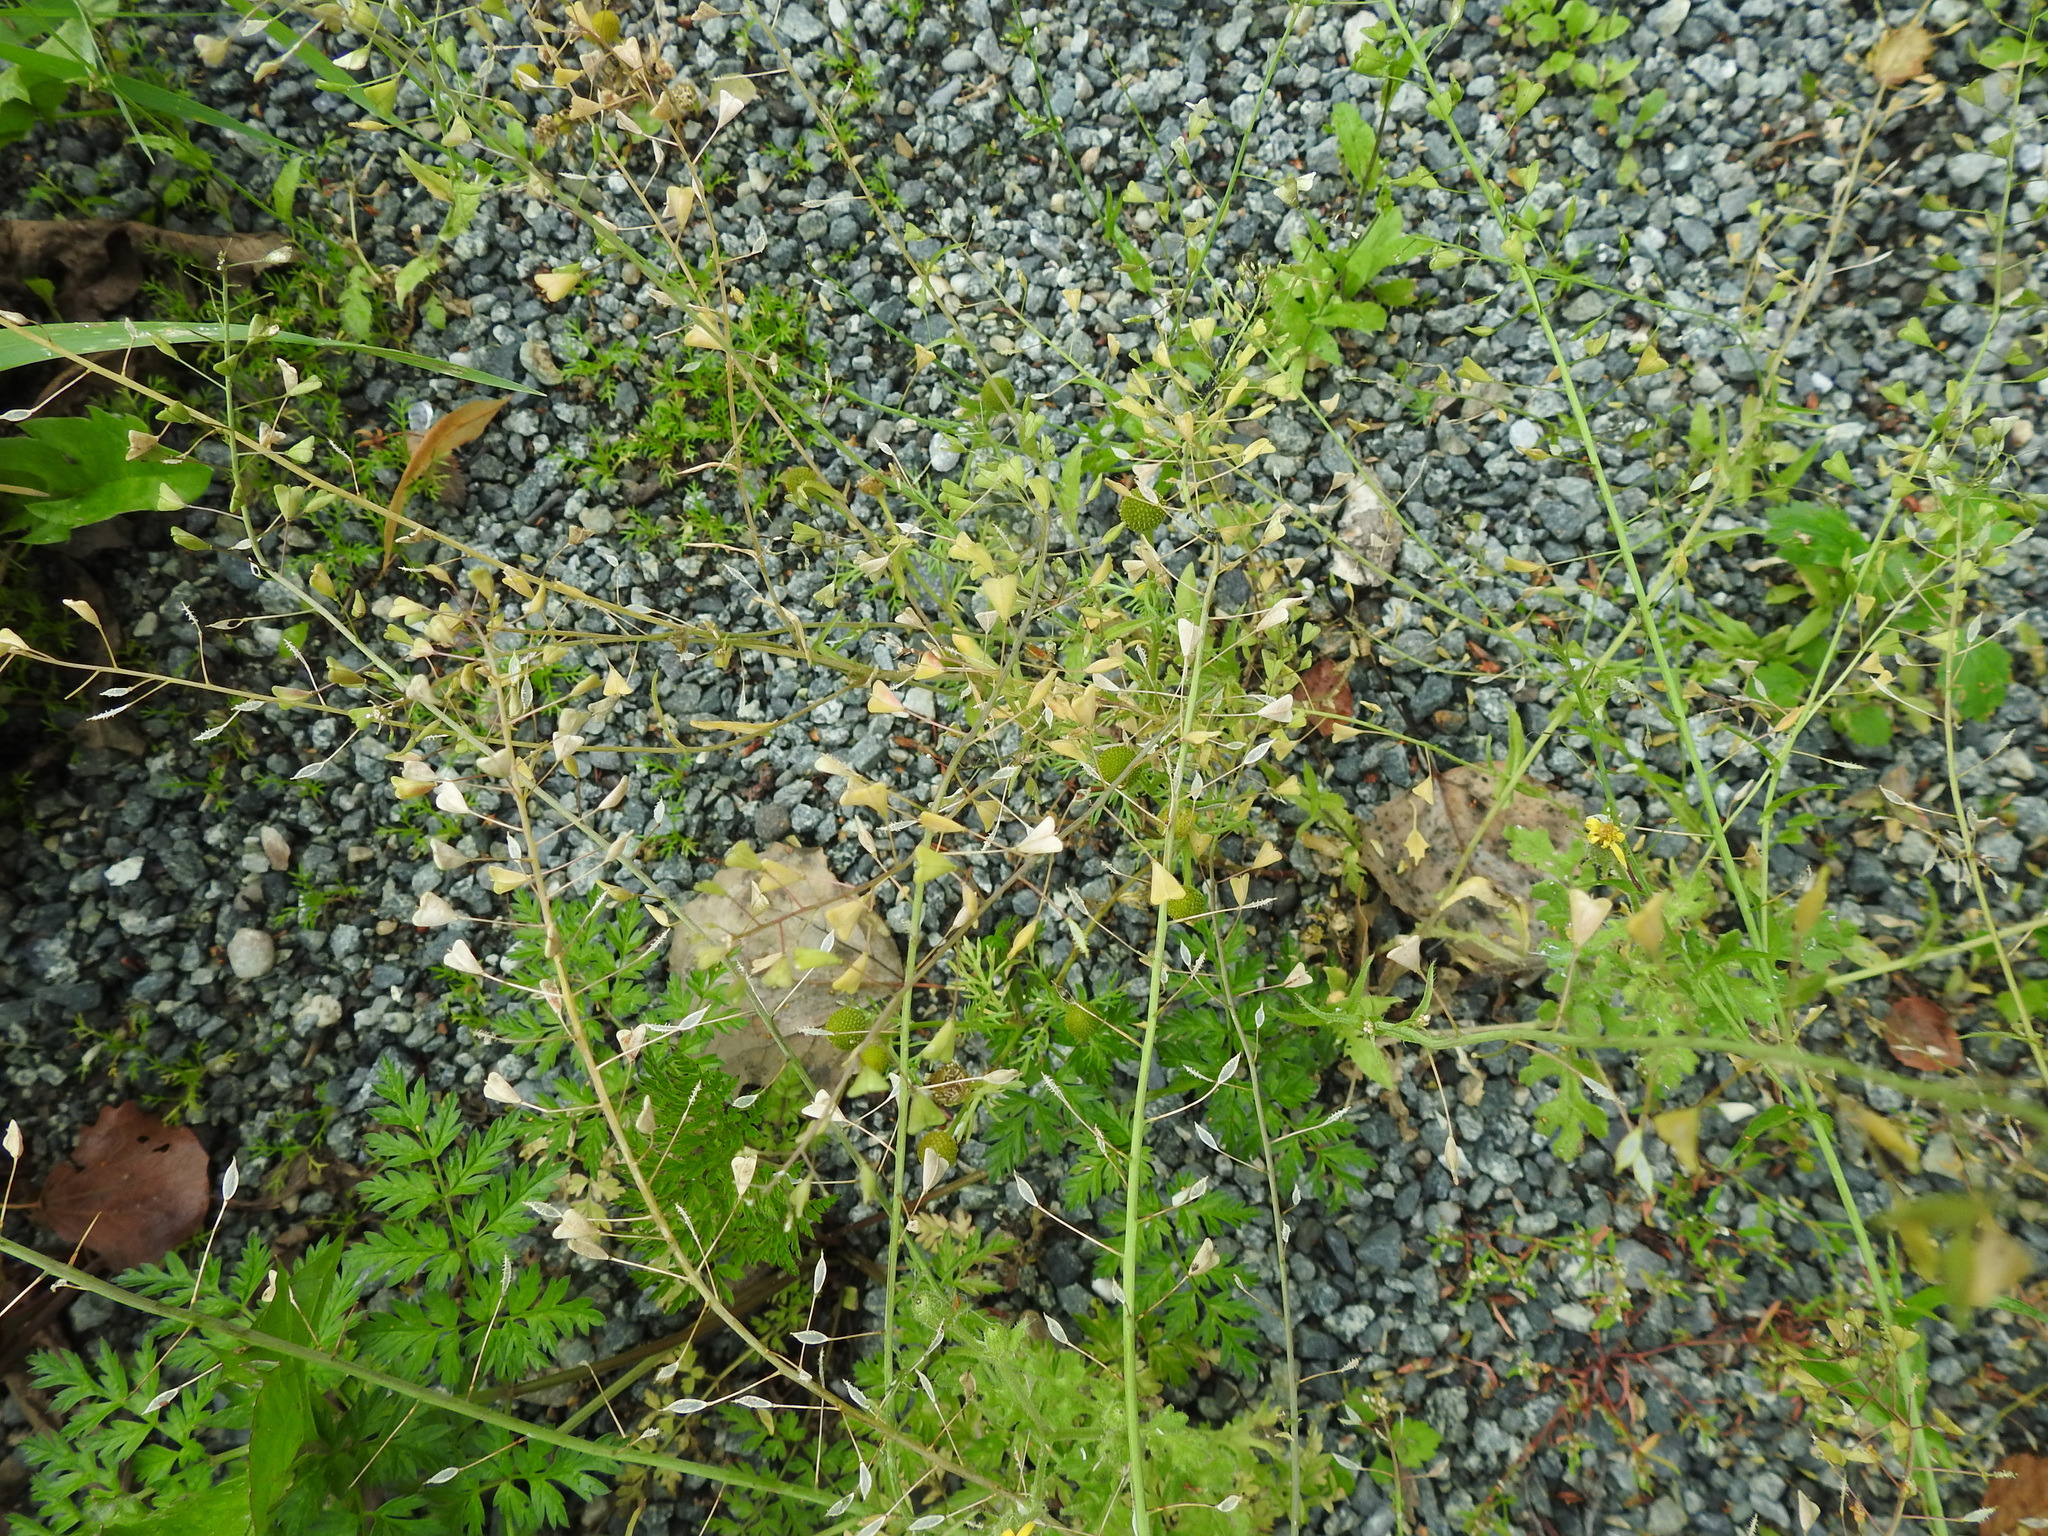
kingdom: Plantae
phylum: Tracheophyta
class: Magnoliopsida
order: Brassicales
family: Brassicaceae
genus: Capsella
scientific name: Capsella bursa-pastoris
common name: Shepherd's purse
